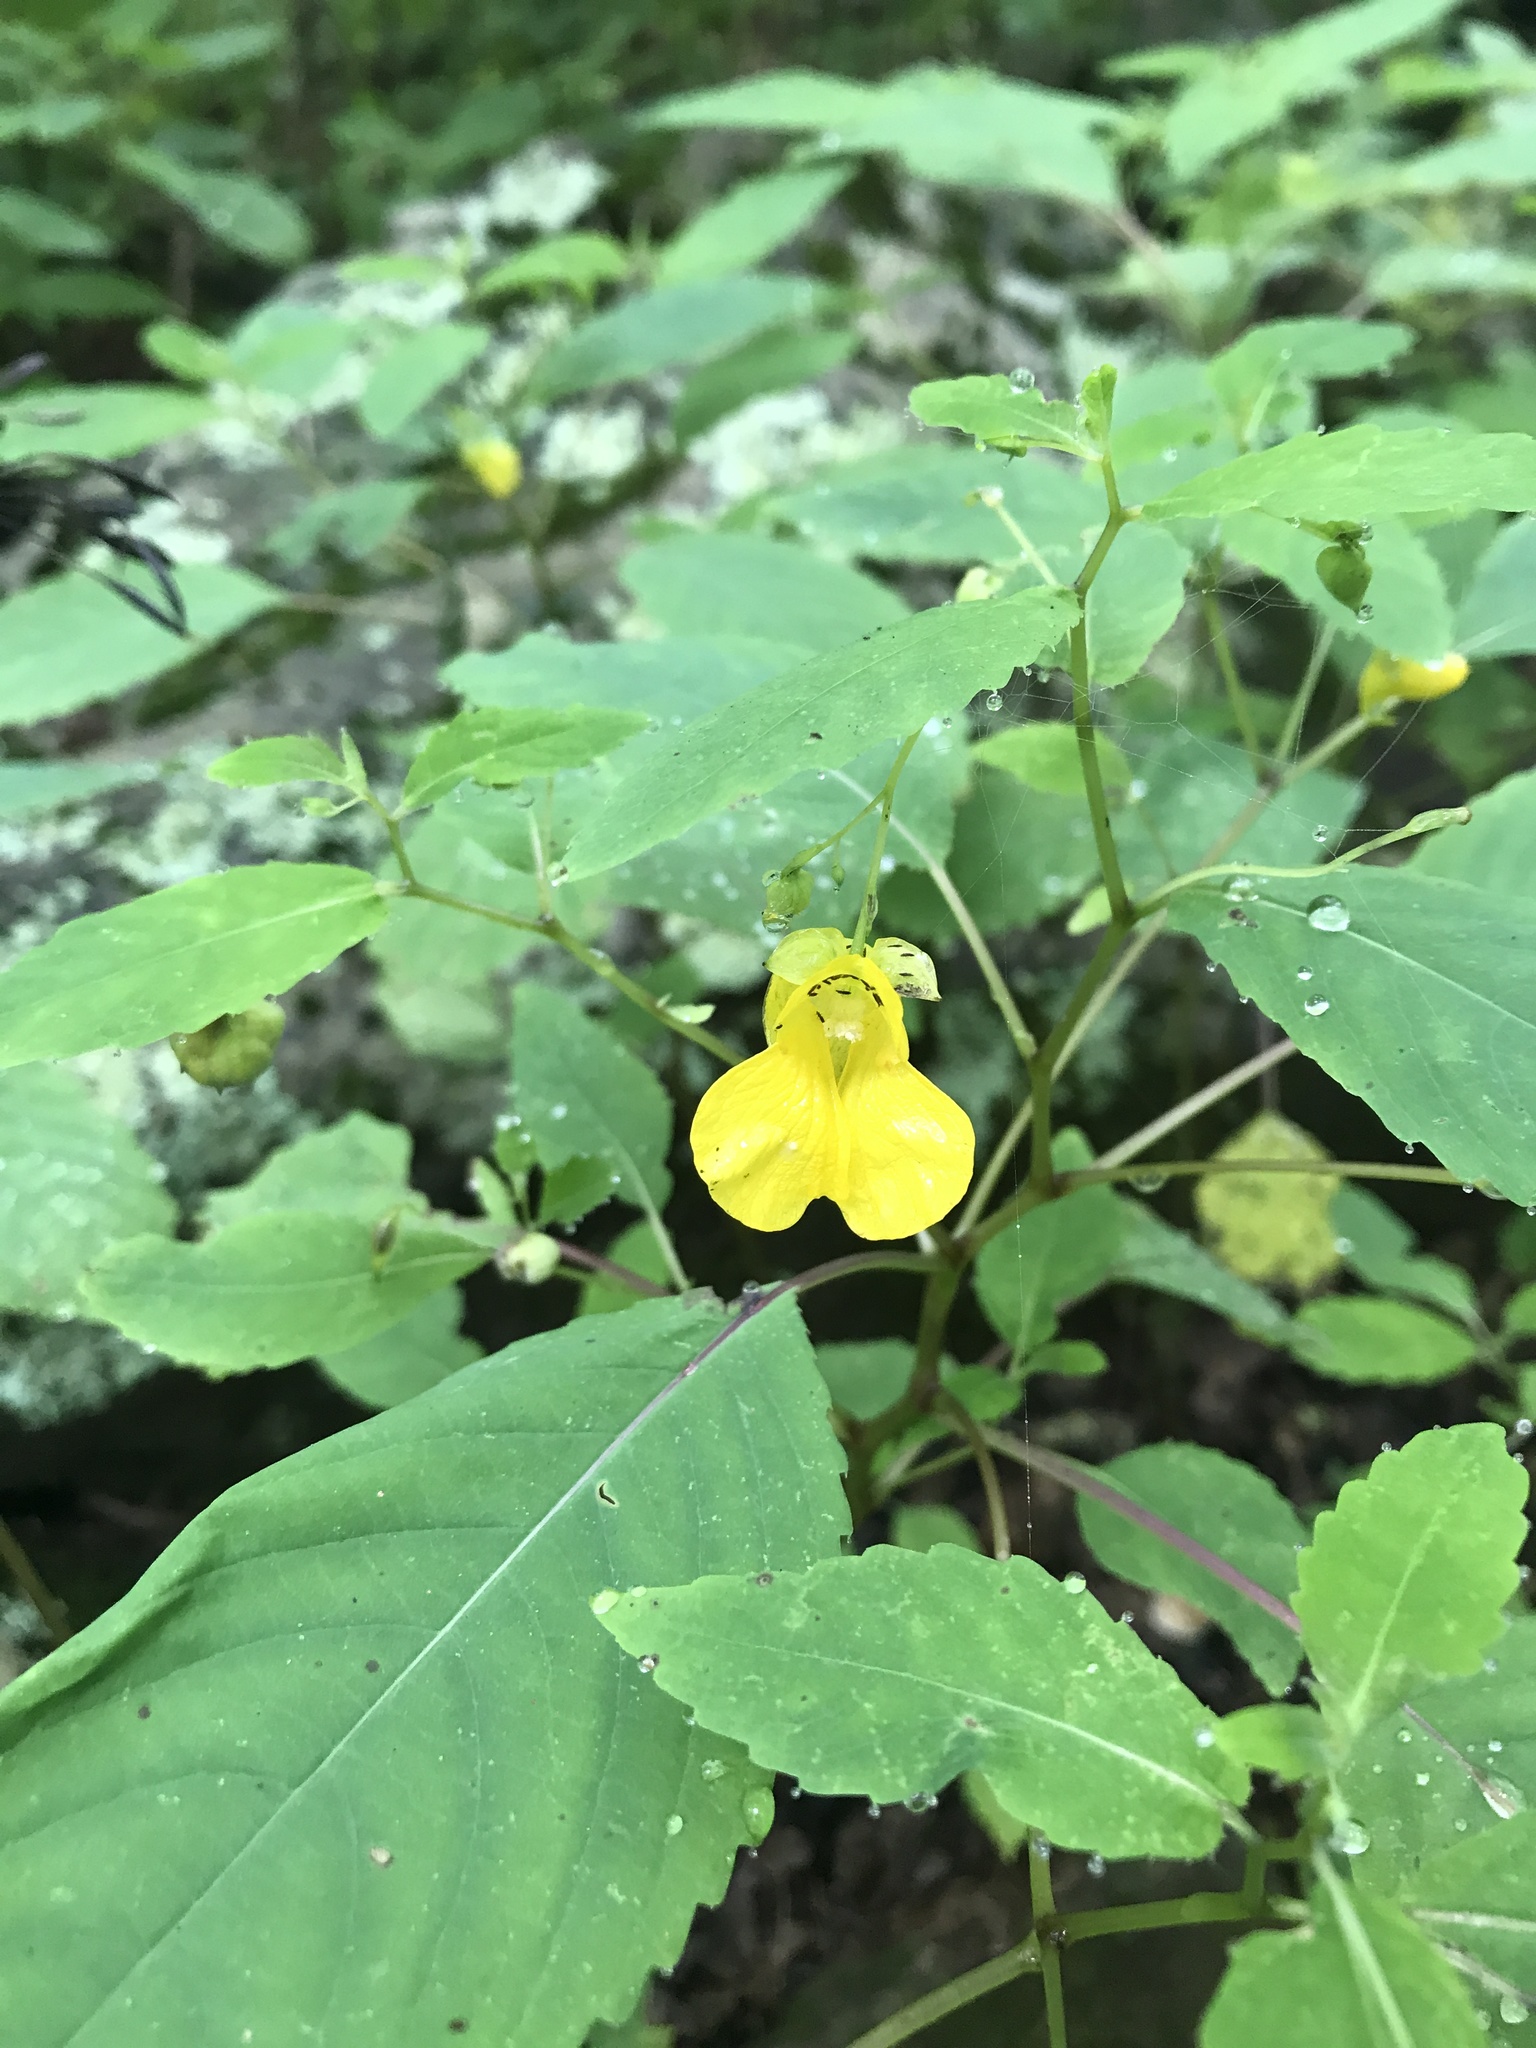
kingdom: Plantae
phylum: Tracheophyta
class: Magnoliopsida
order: Ericales
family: Balsaminaceae
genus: Impatiens
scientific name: Impatiens pallida
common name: Pale snapweed
